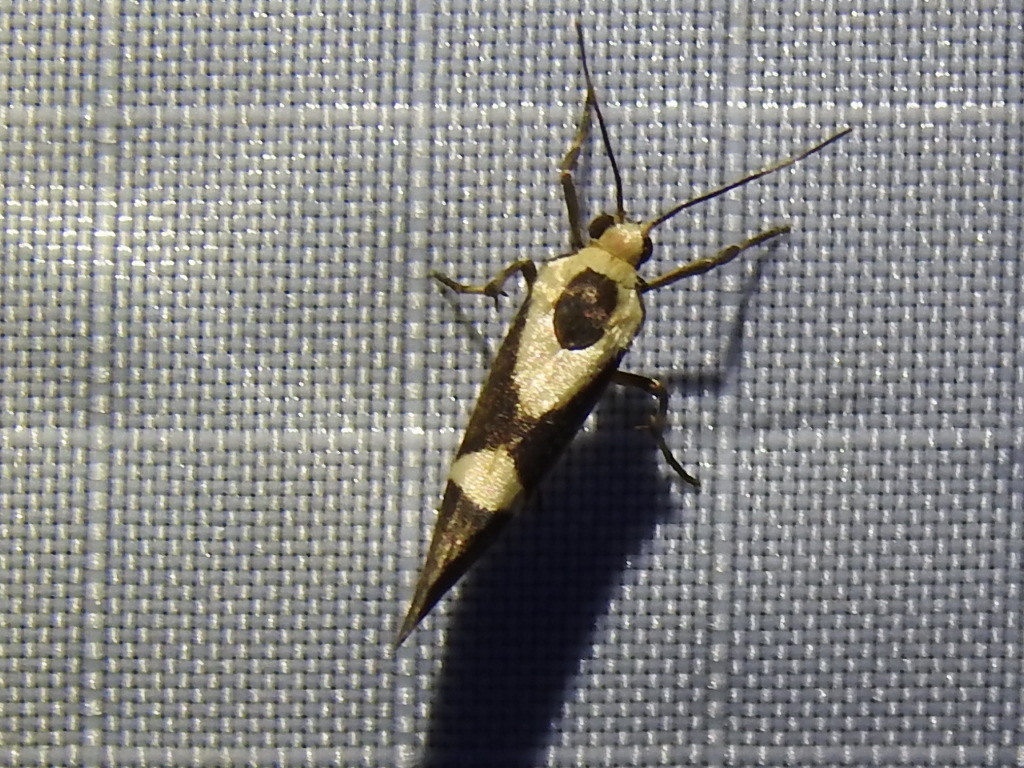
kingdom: Animalia
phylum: Arthropoda
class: Insecta
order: Lepidoptera
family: Erebidae
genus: Cisthene
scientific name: Cisthene subrufa
